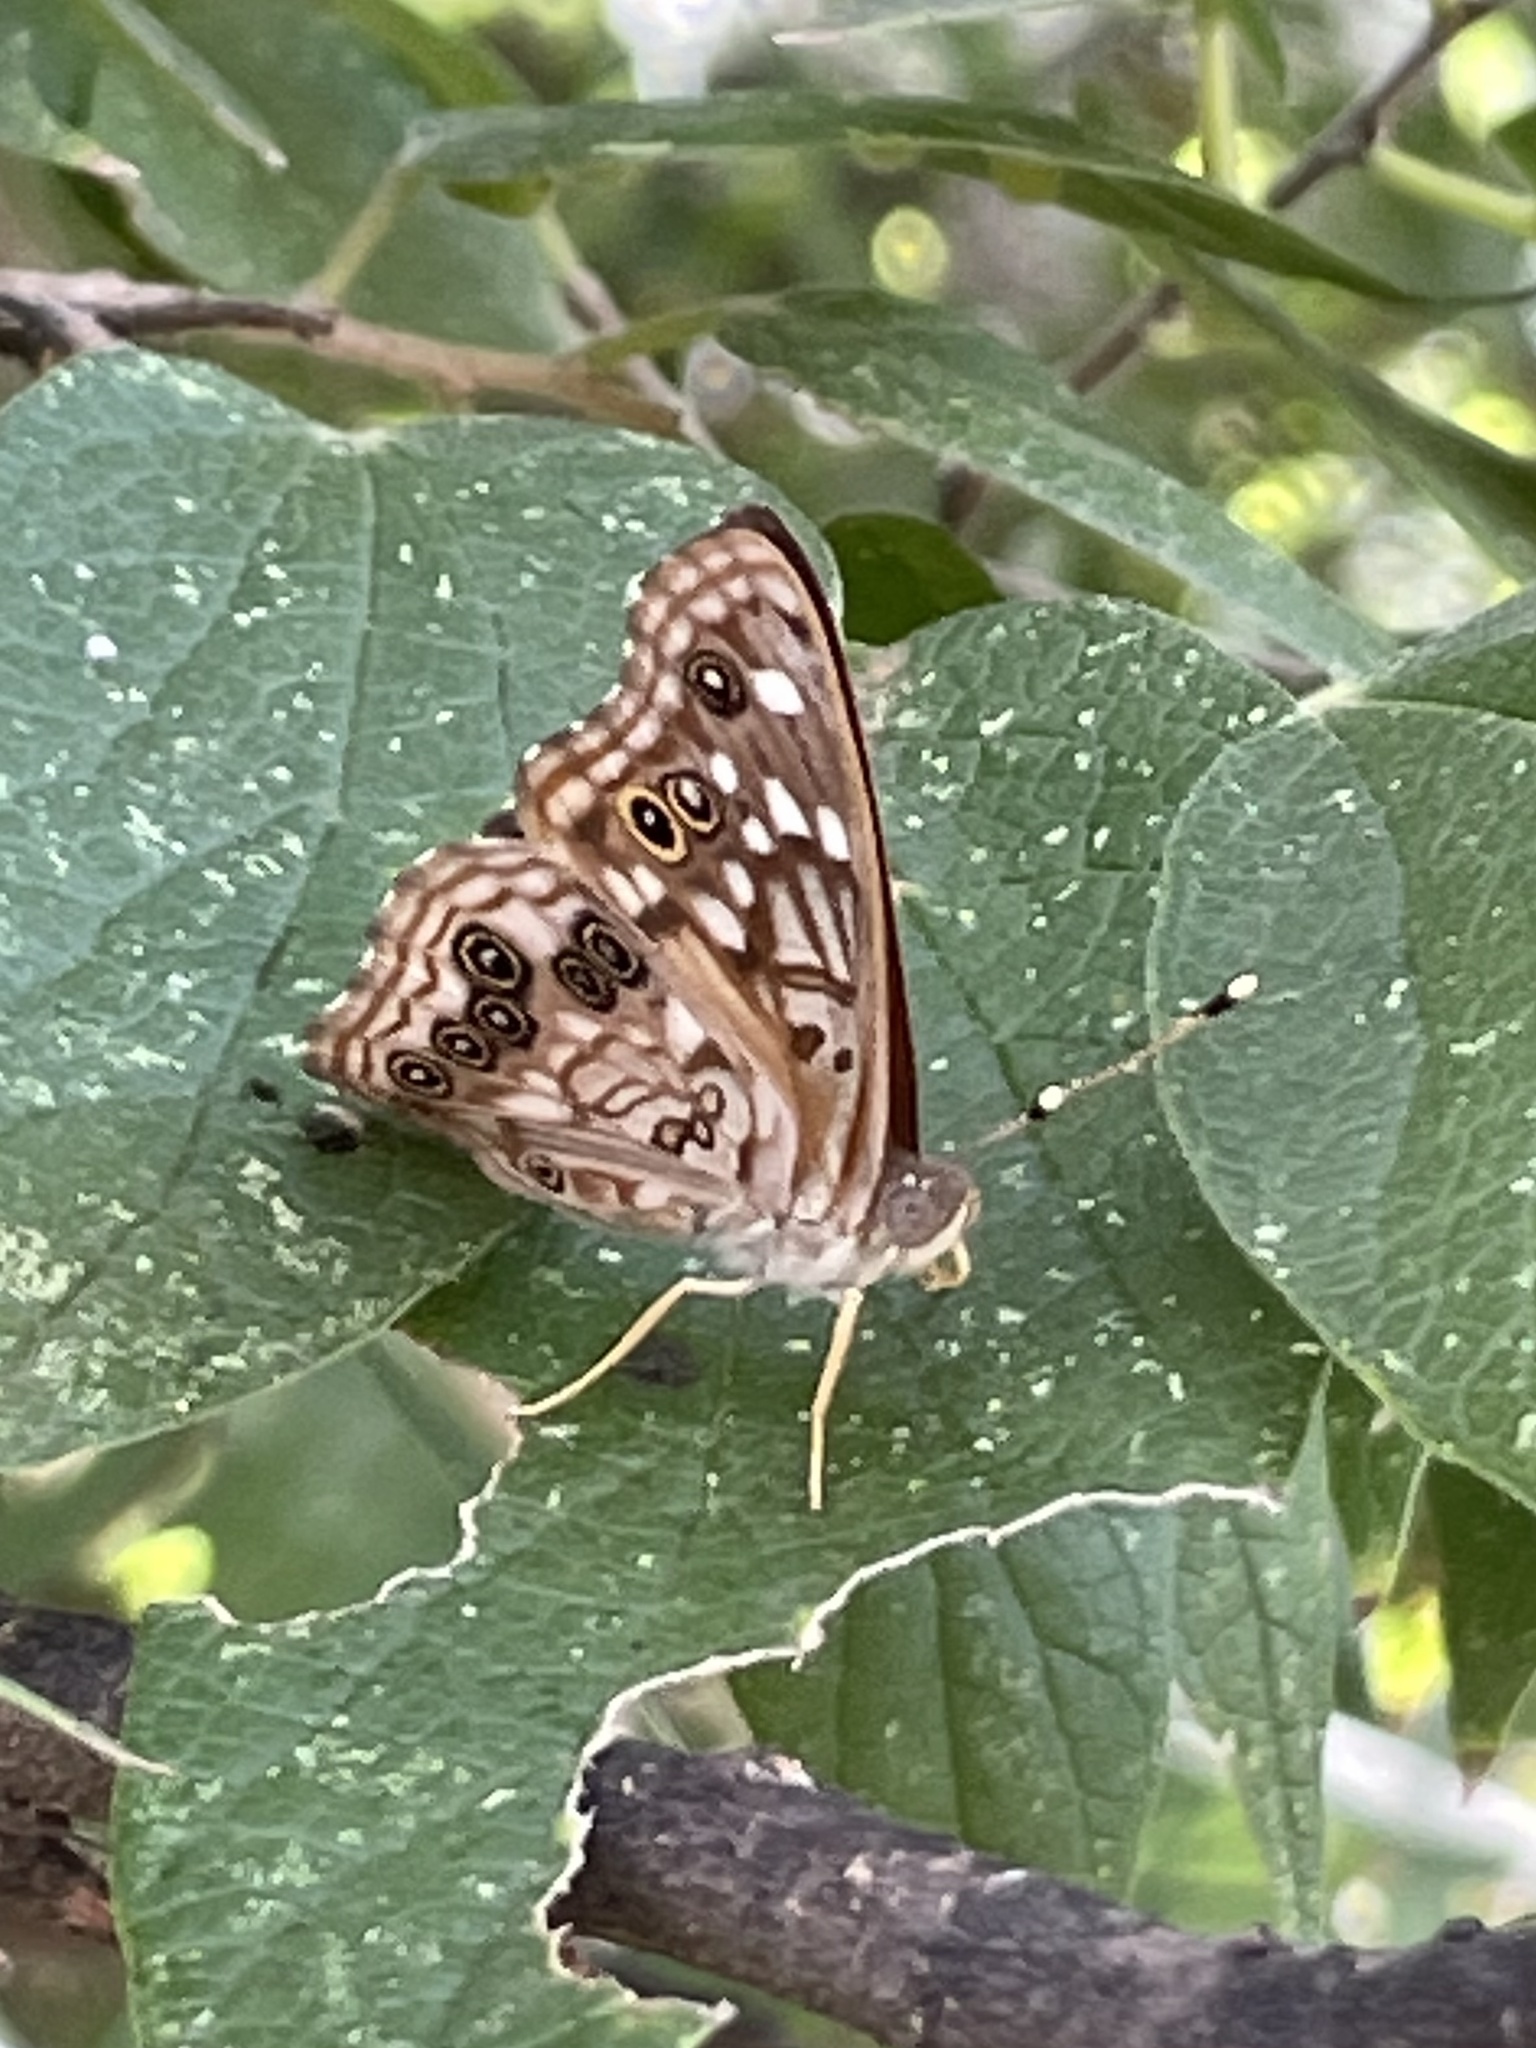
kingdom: Animalia
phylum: Arthropoda
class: Insecta
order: Lepidoptera
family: Nymphalidae
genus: Asterocampa
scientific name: Asterocampa celtis
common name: Hackberry emperor
